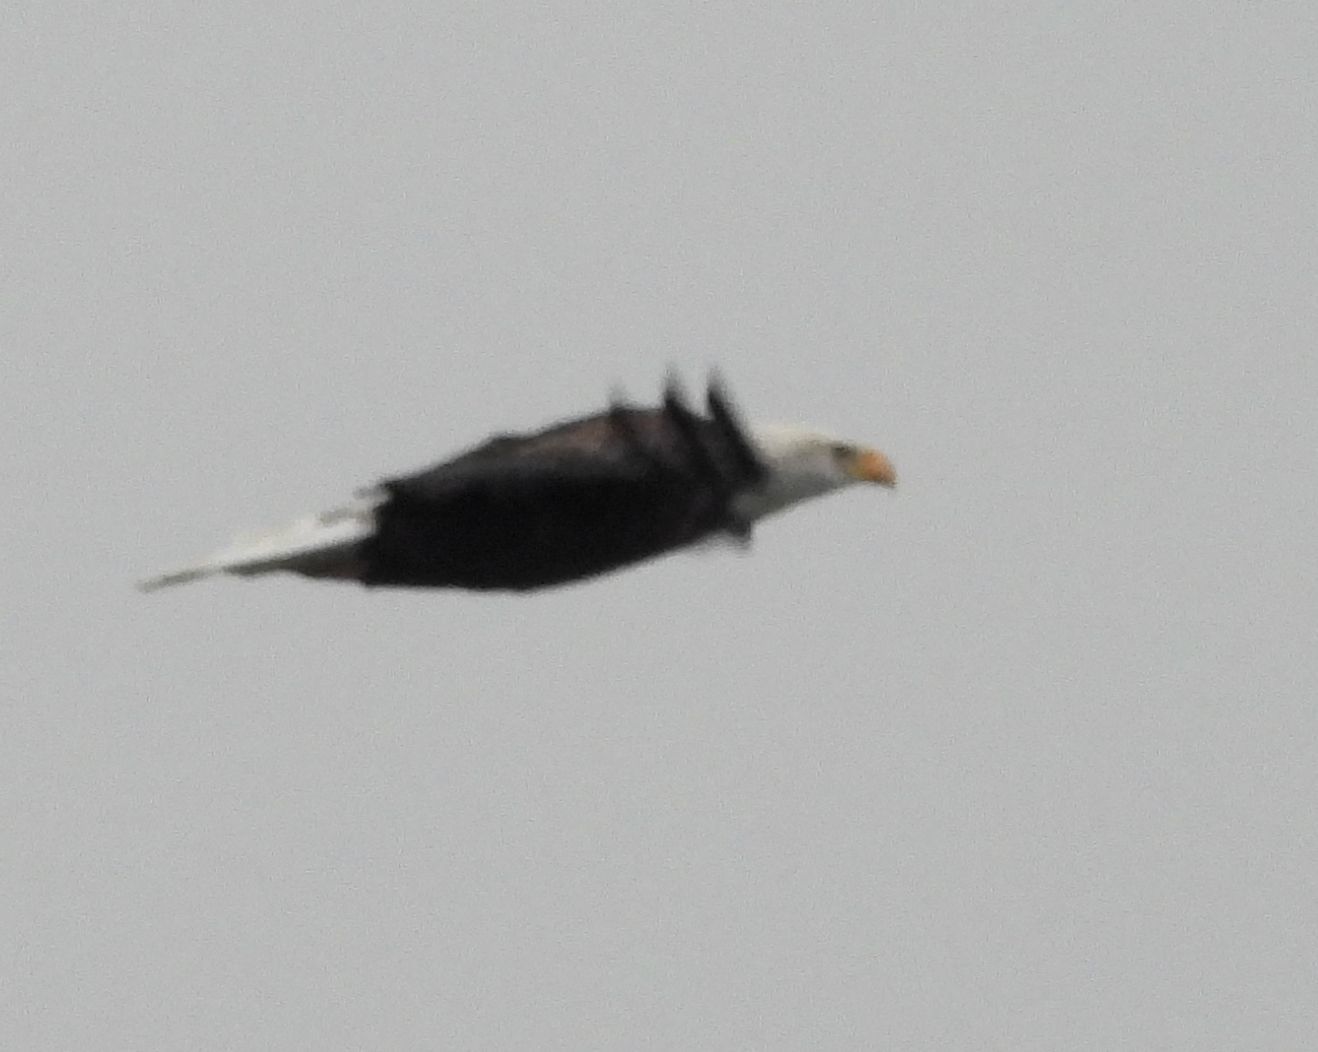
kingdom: Animalia
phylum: Chordata
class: Aves
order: Accipitriformes
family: Accipitridae
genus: Haliaeetus
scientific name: Haliaeetus leucocephalus
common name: Bald eagle
